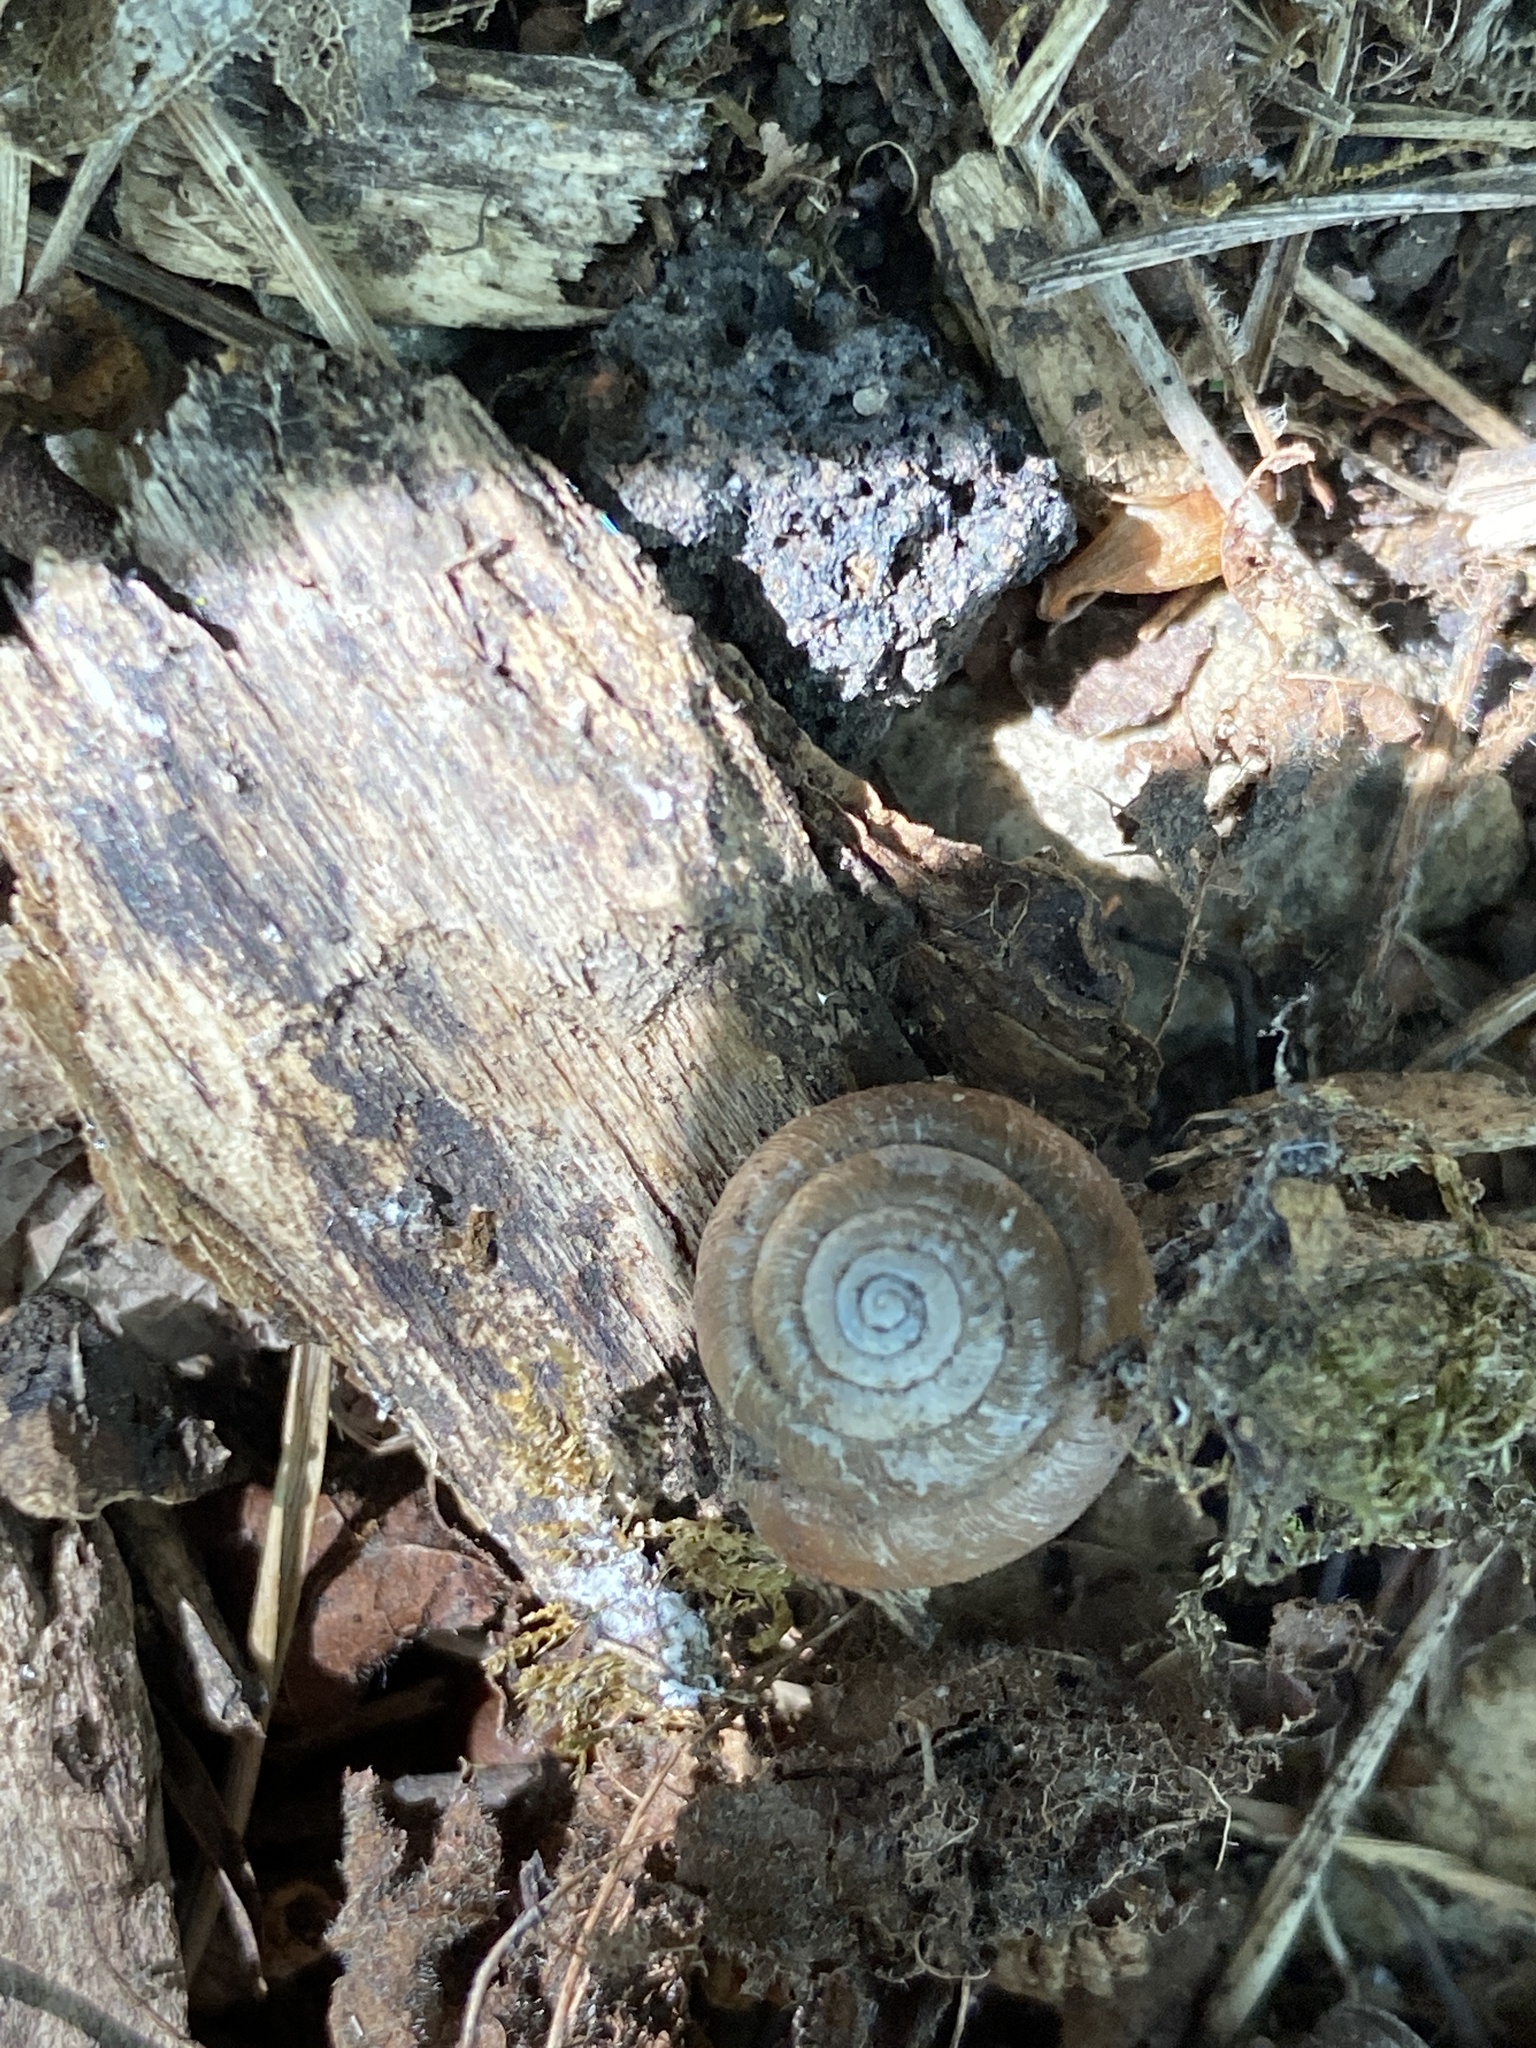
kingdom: Animalia
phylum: Mollusca
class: Gastropoda
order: Stylommatophora
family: Hygromiidae
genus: Trochulus
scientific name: Trochulus hispidus
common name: Hairy snail
